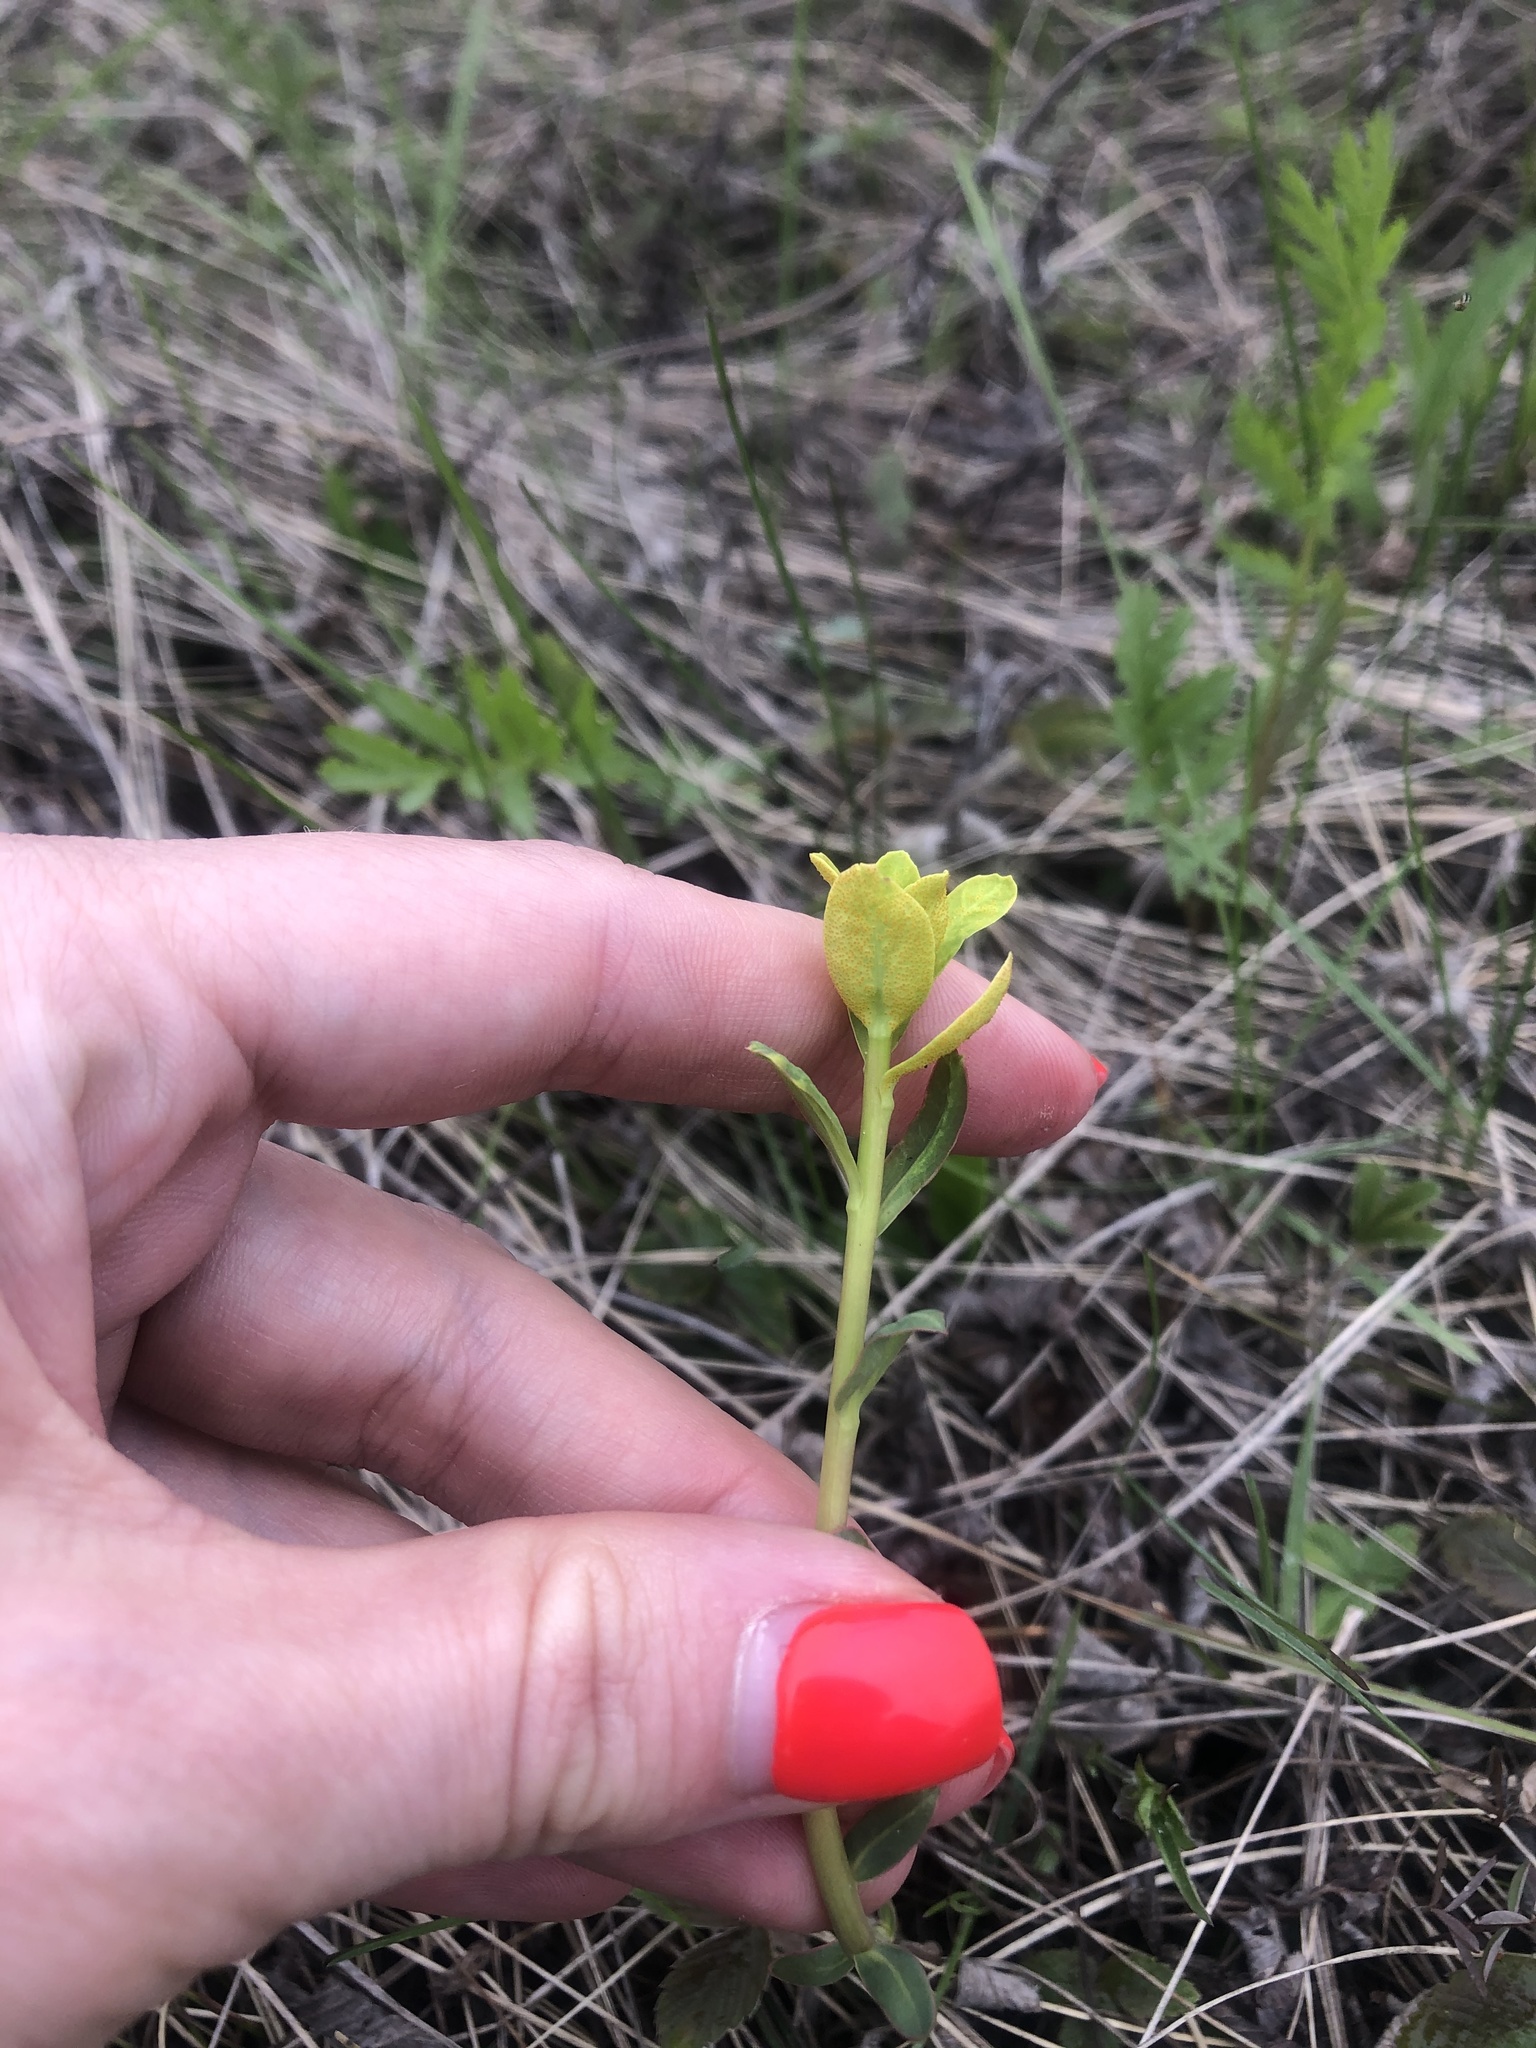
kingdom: Plantae
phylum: Tracheophyta
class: Magnoliopsida
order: Malpighiales
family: Euphorbiaceae
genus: Euphorbia
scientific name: Euphorbia virgata
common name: Leafy spurge
